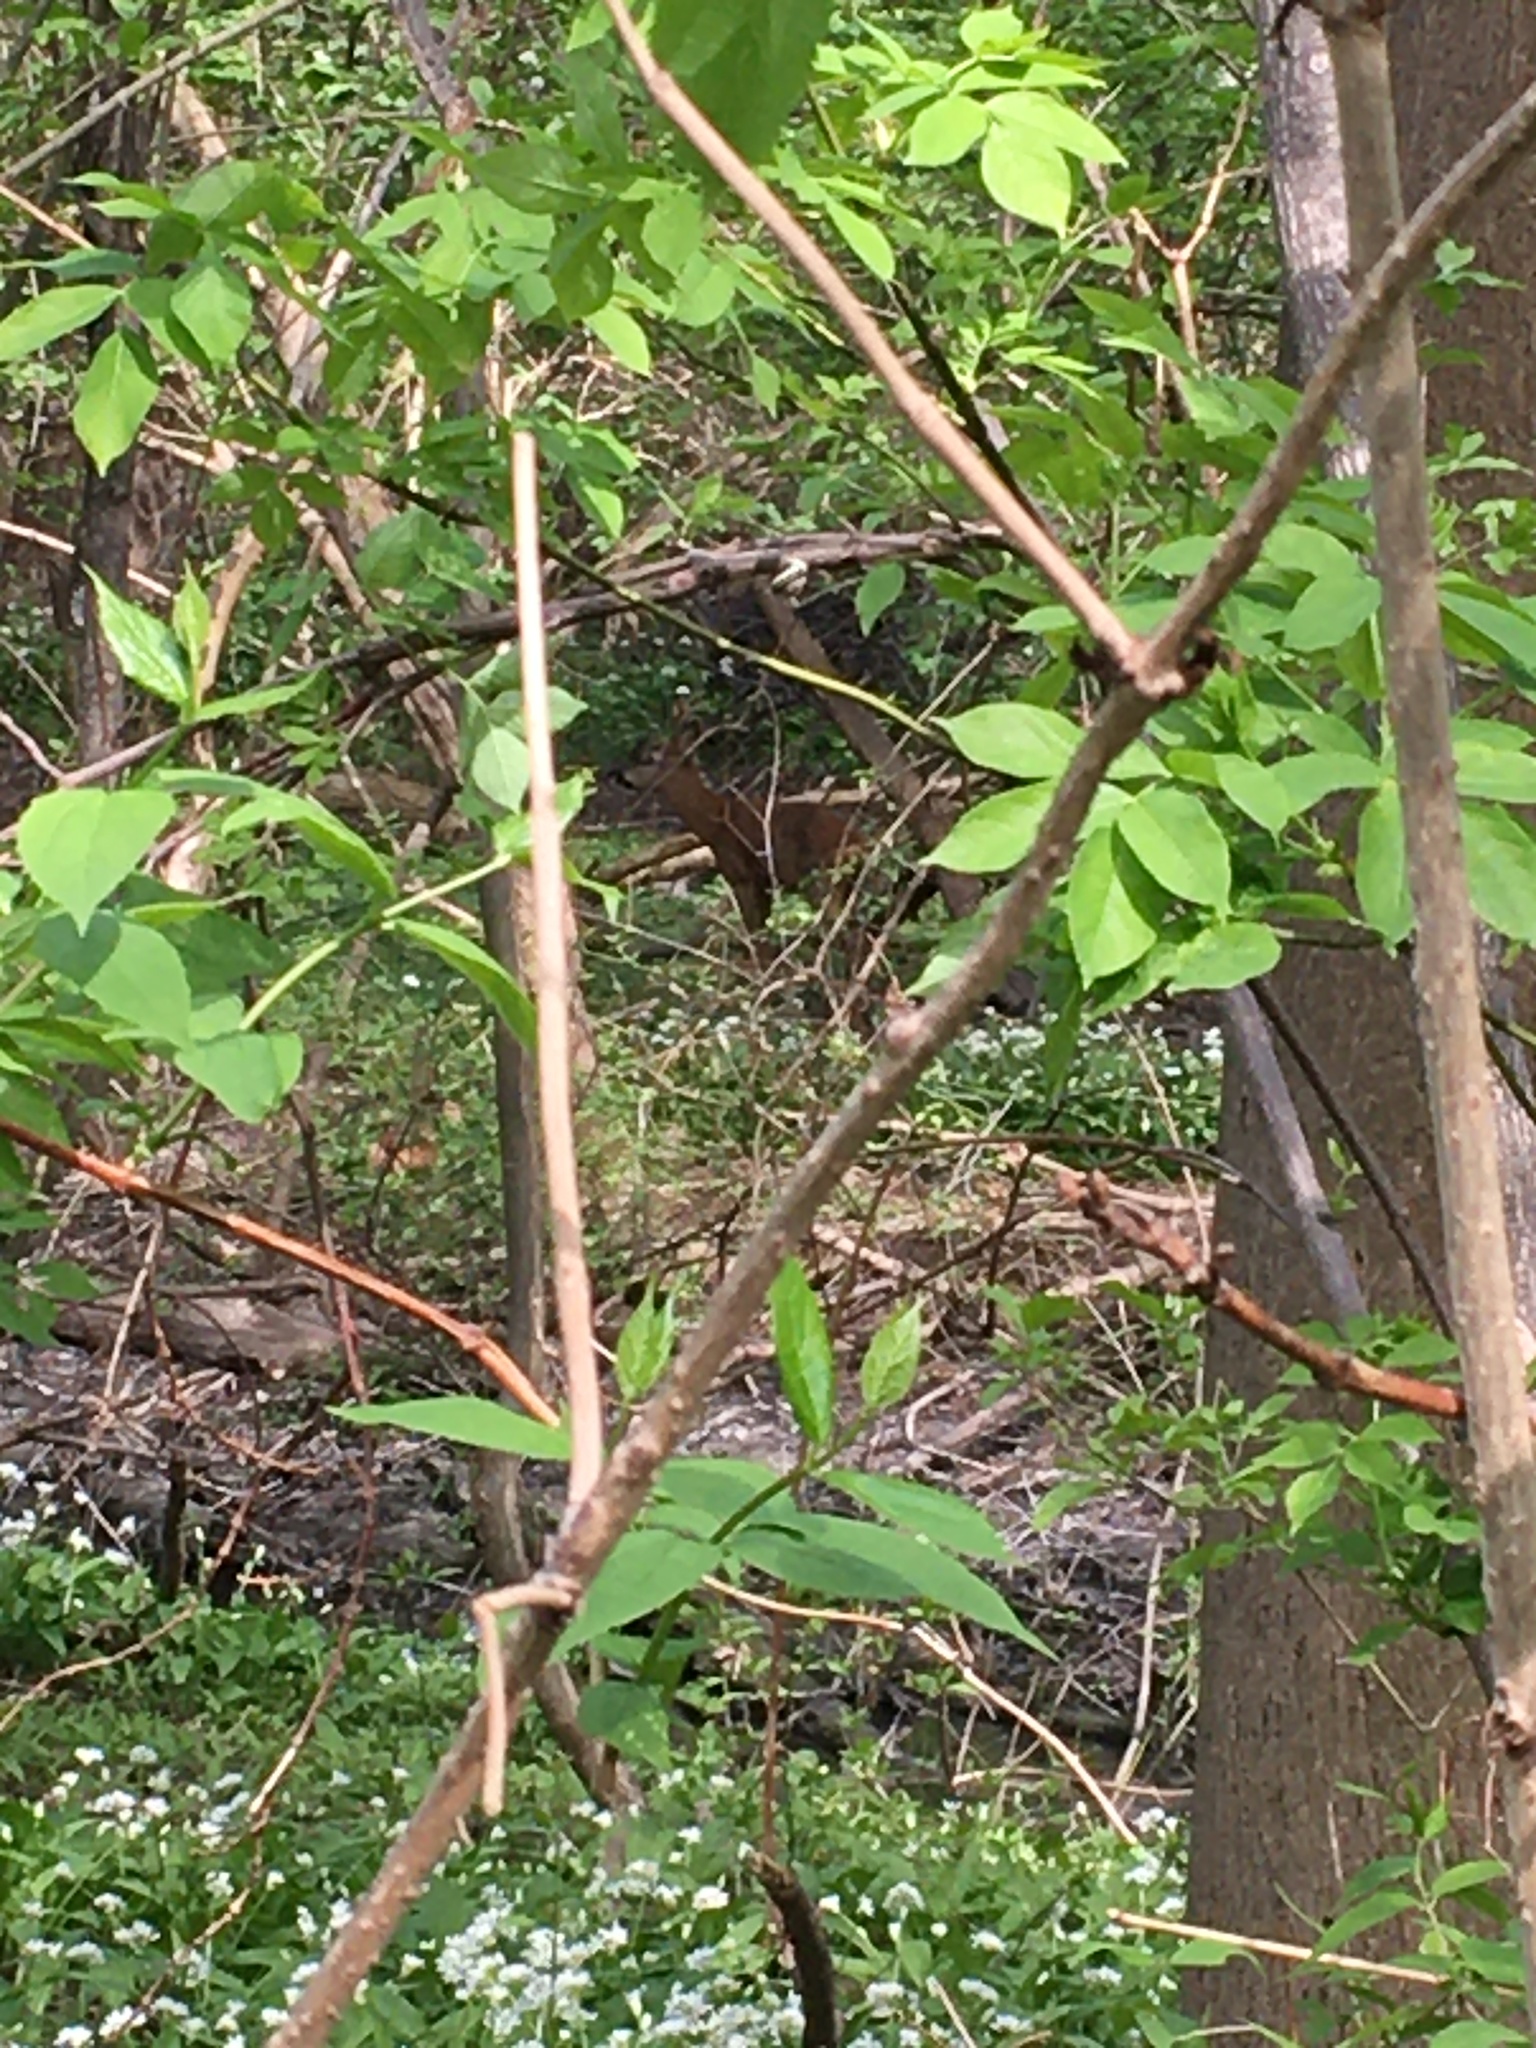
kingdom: Animalia
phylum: Chordata
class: Mammalia
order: Artiodactyla
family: Cervidae
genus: Capreolus
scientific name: Capreolus capreolus
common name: Western roe deer
